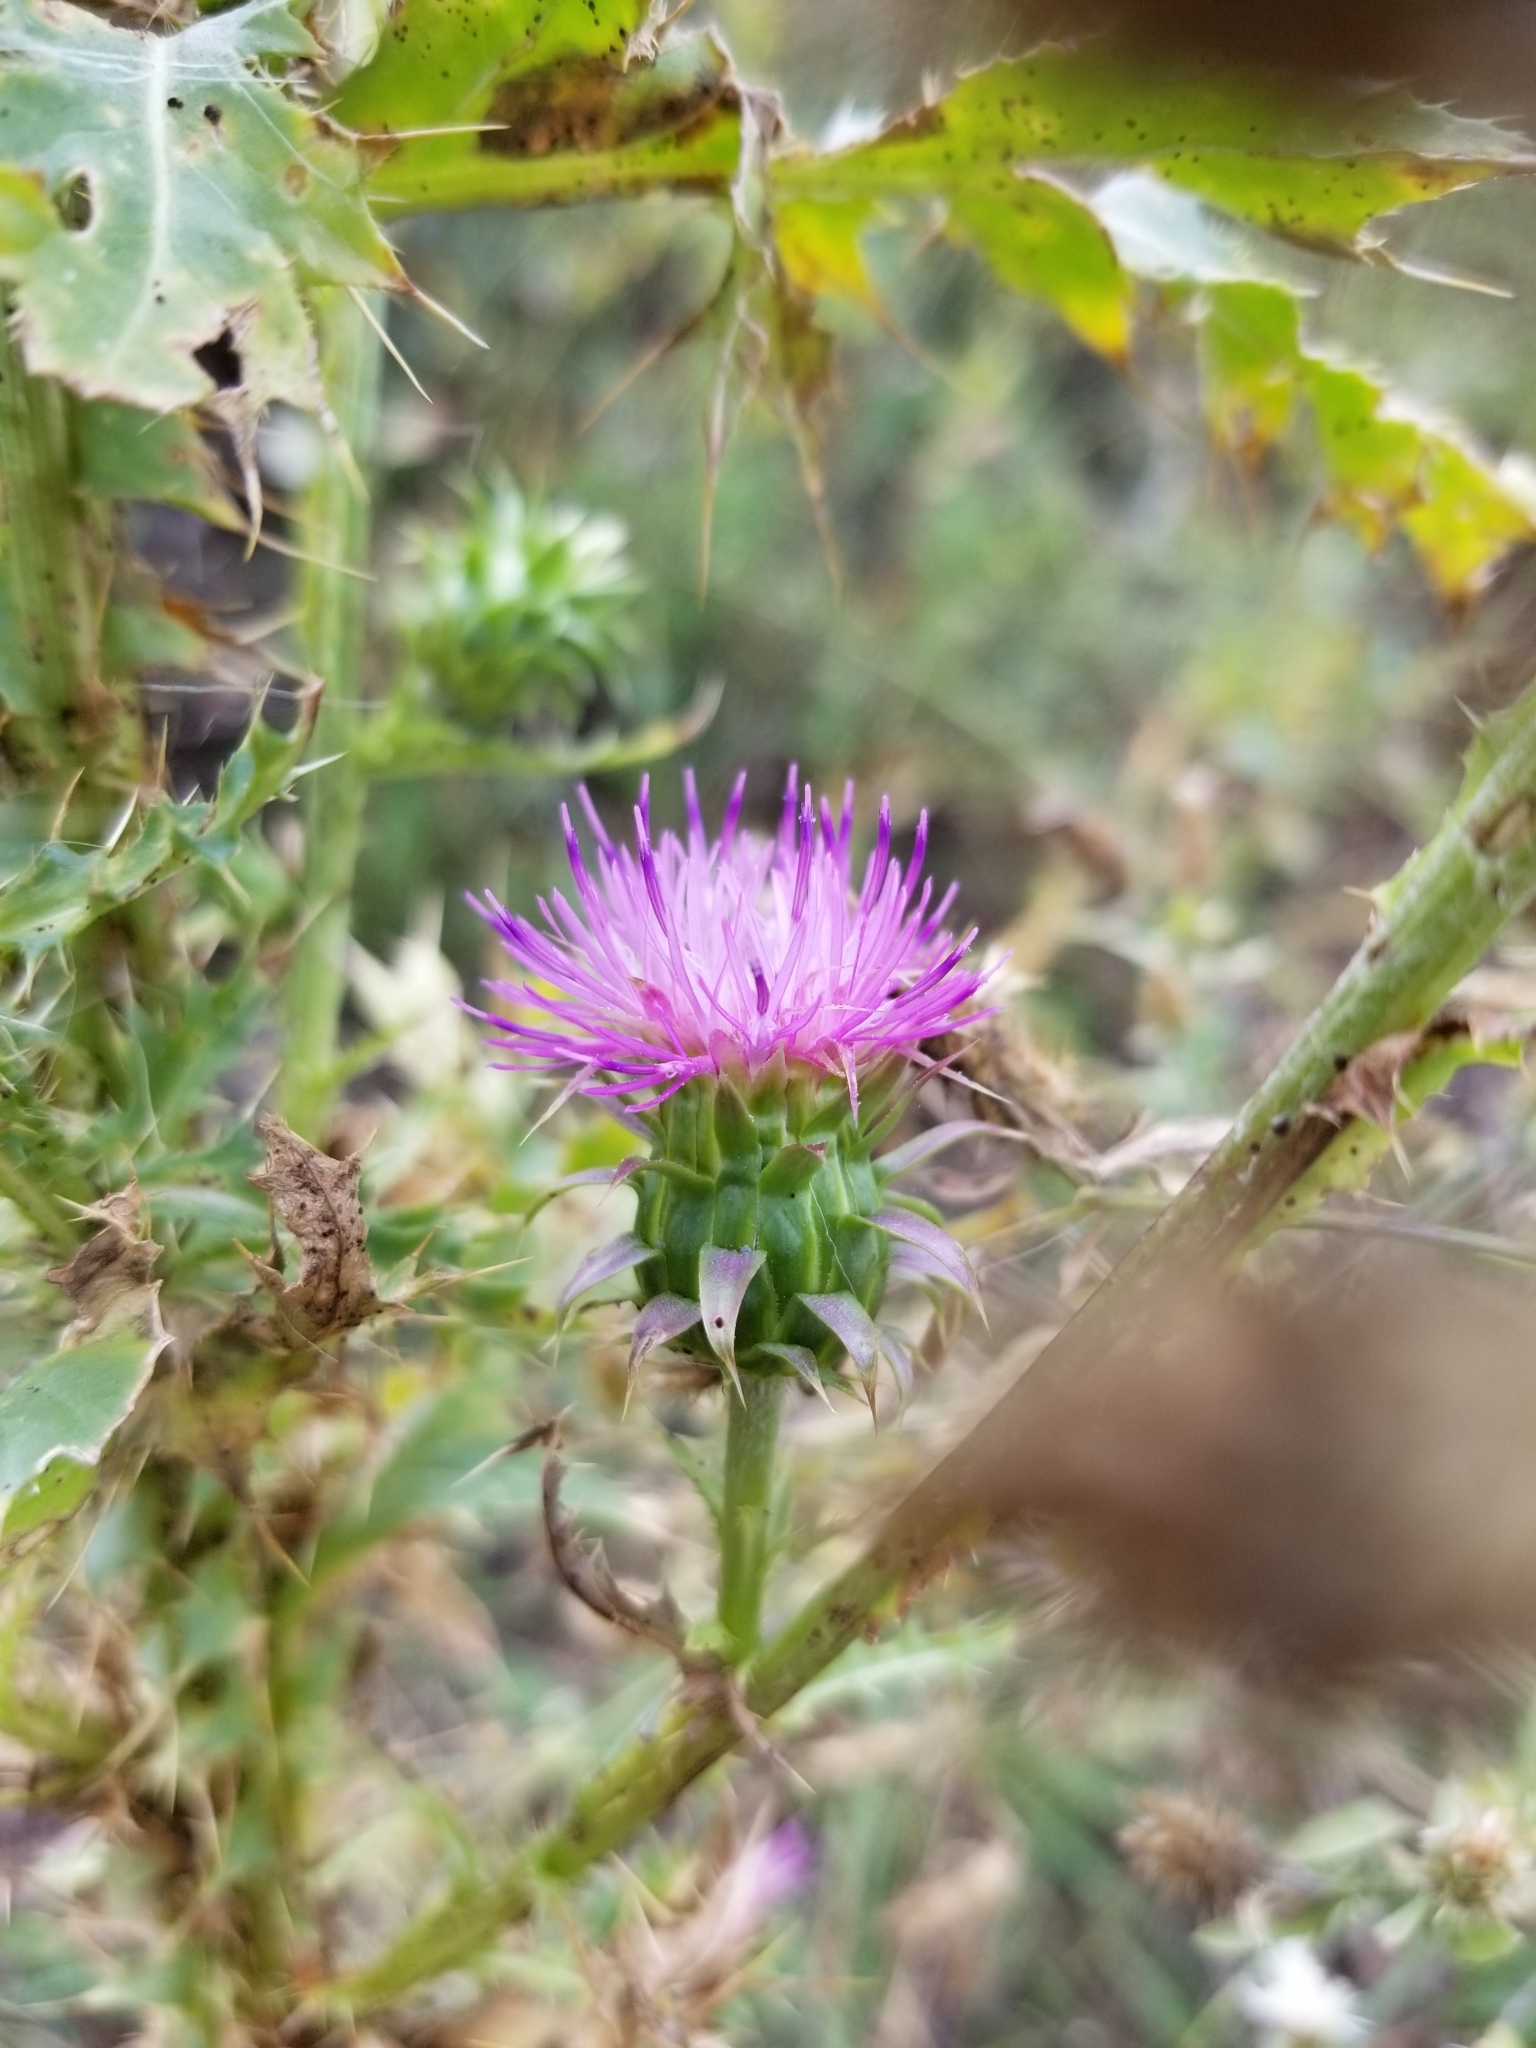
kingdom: Plantae
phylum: Tracheophyta
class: Magnoliopsida
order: Asterales
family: Asteraceae
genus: Carduus
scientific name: Carduus nutans
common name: Musk thistle
